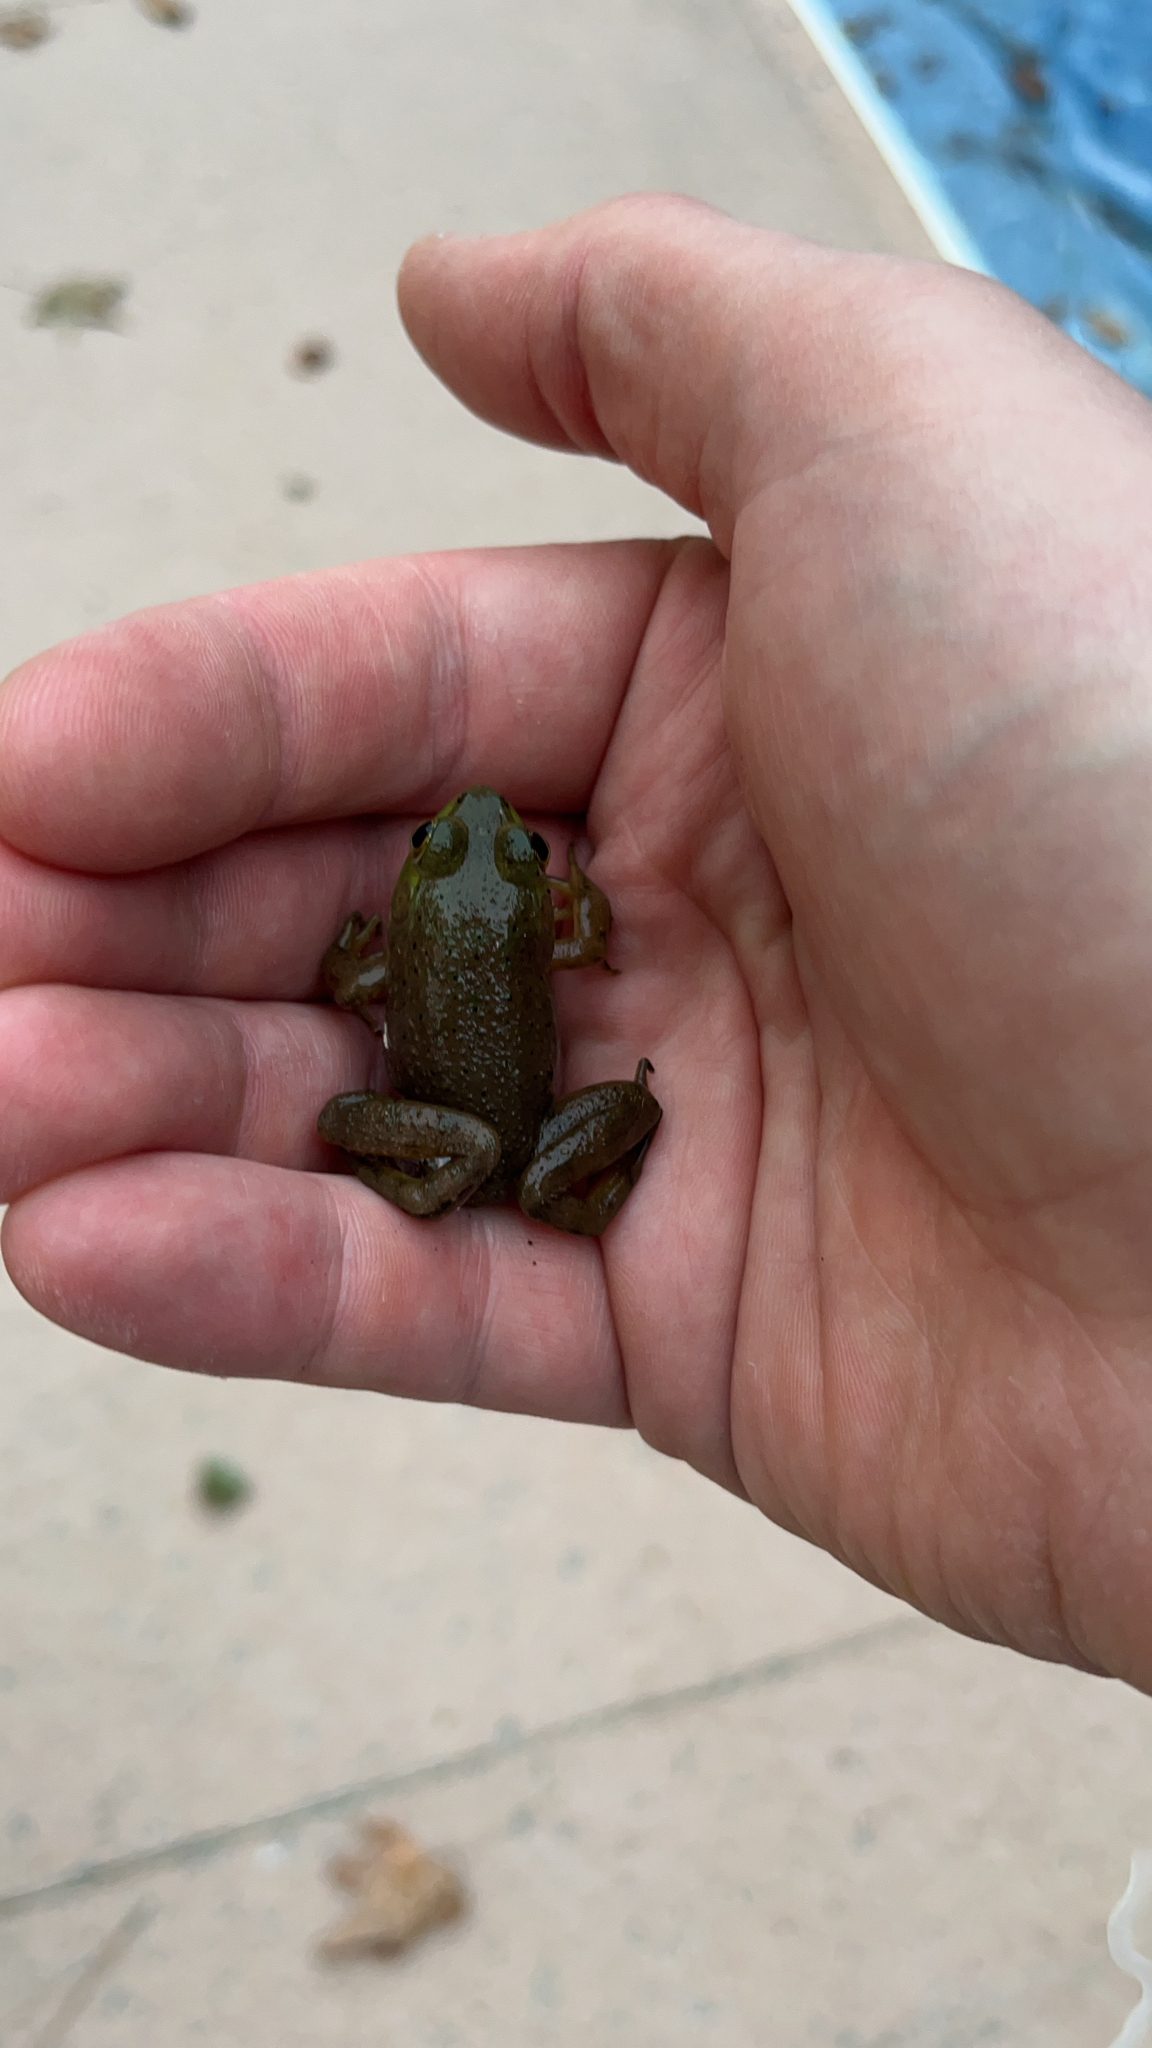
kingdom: Animalia
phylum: Chordata
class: Amphibia
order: Anura
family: Ranidae
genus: Lithobates
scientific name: Lithobates catesbeianus
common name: American bullfrog
